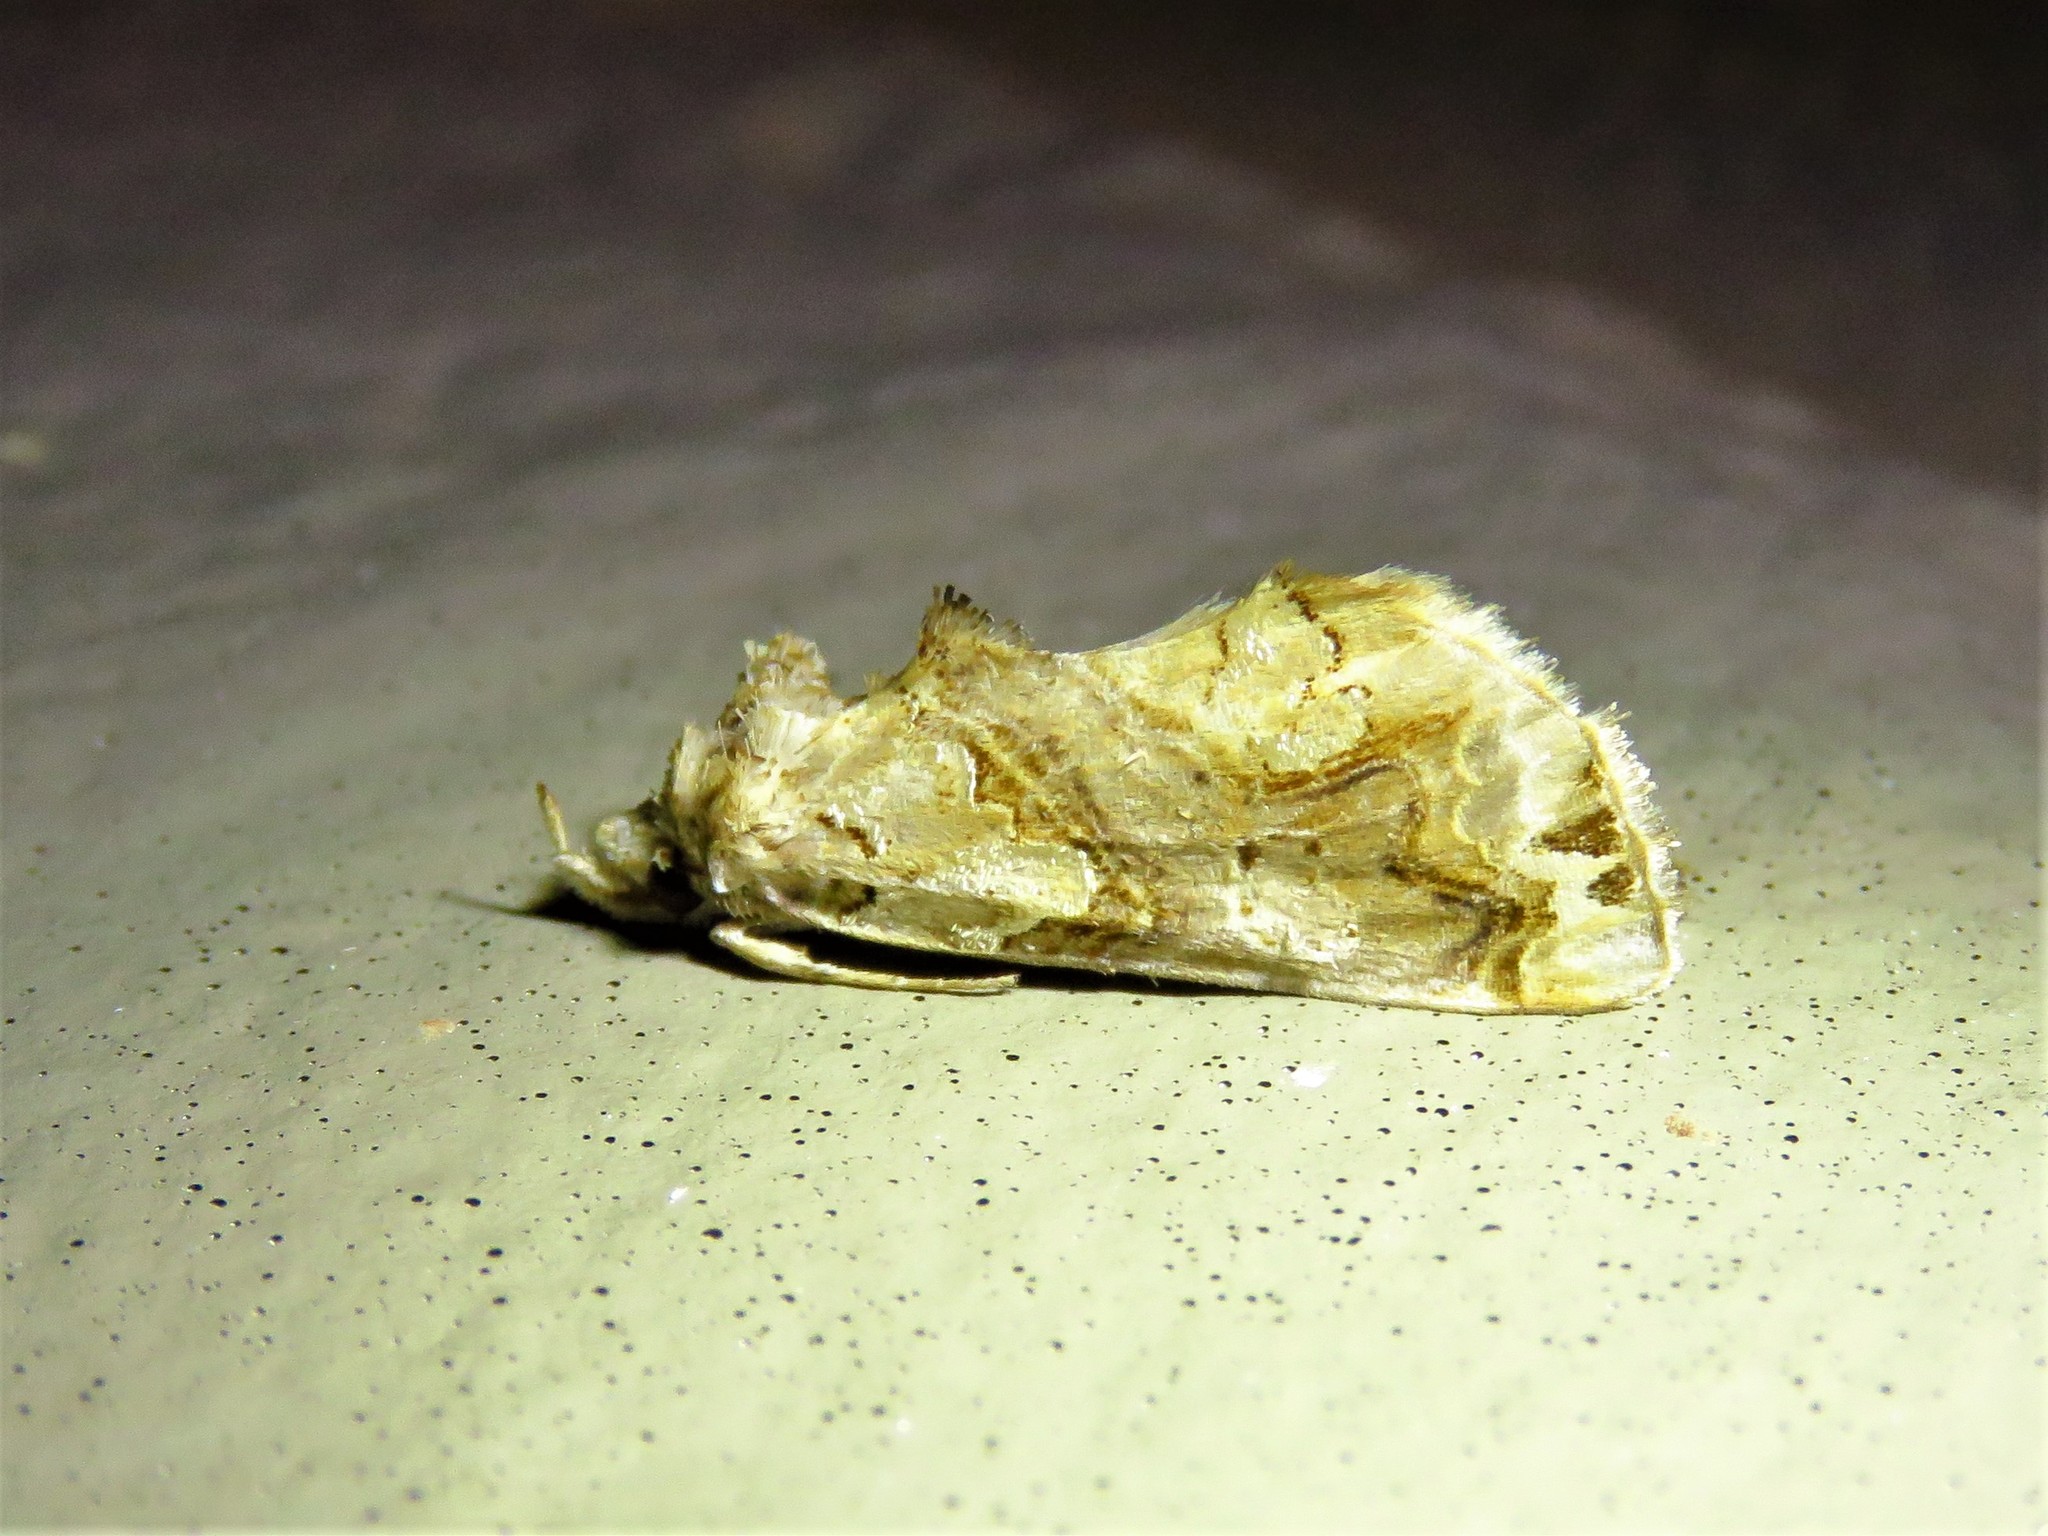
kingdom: Animalia
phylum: Arthropoda
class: Insecta
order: Lepidoptera
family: Erebidae
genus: Plusiodonta
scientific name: Plusiodonta compressipalpis
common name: Moonseed moth
